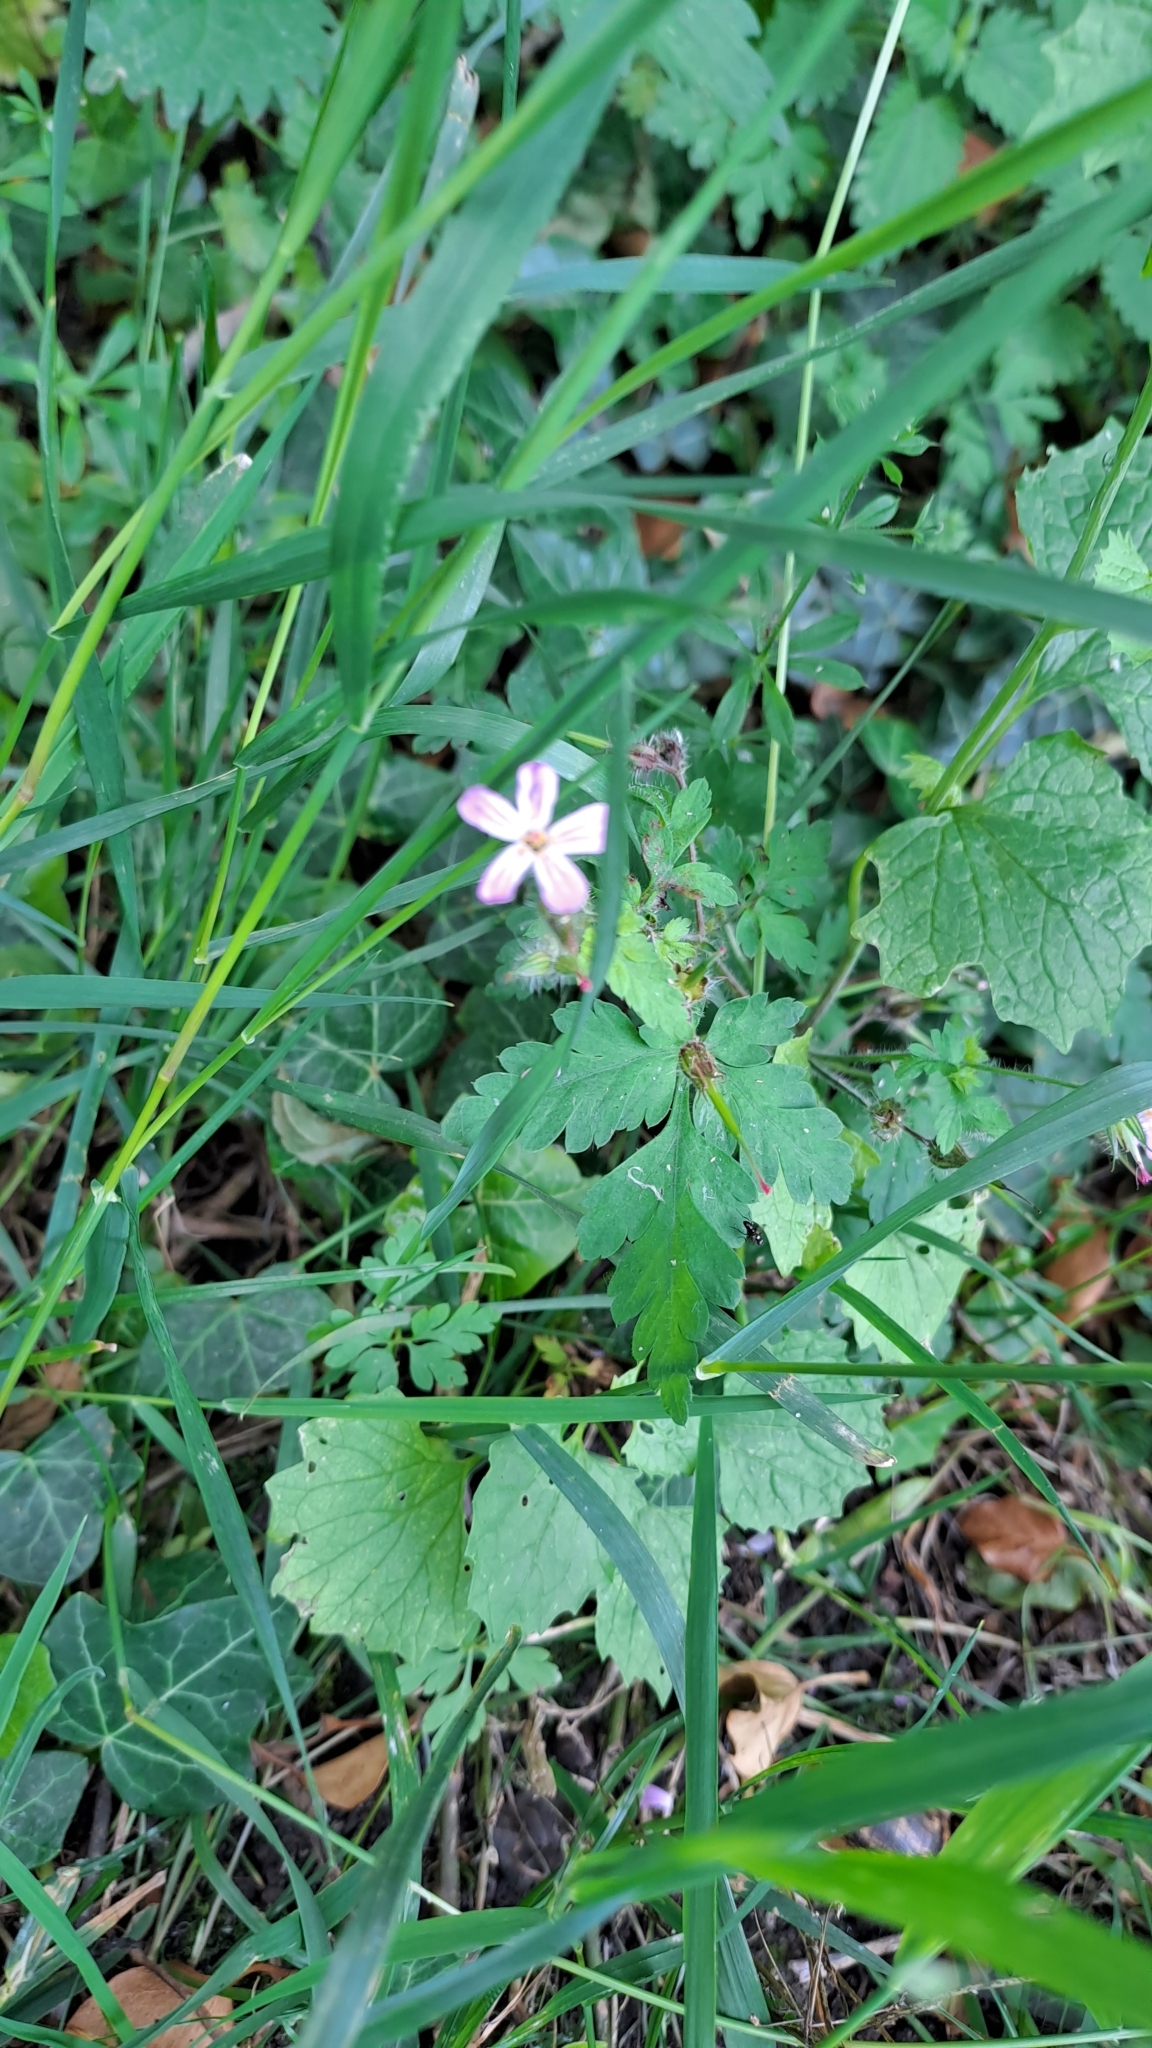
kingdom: Plantae
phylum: Tracheophyta
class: Magnoliopsida
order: Geraniales
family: Geraniaceae
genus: Geranium
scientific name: Geranium robertianum
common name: Herb-robert
